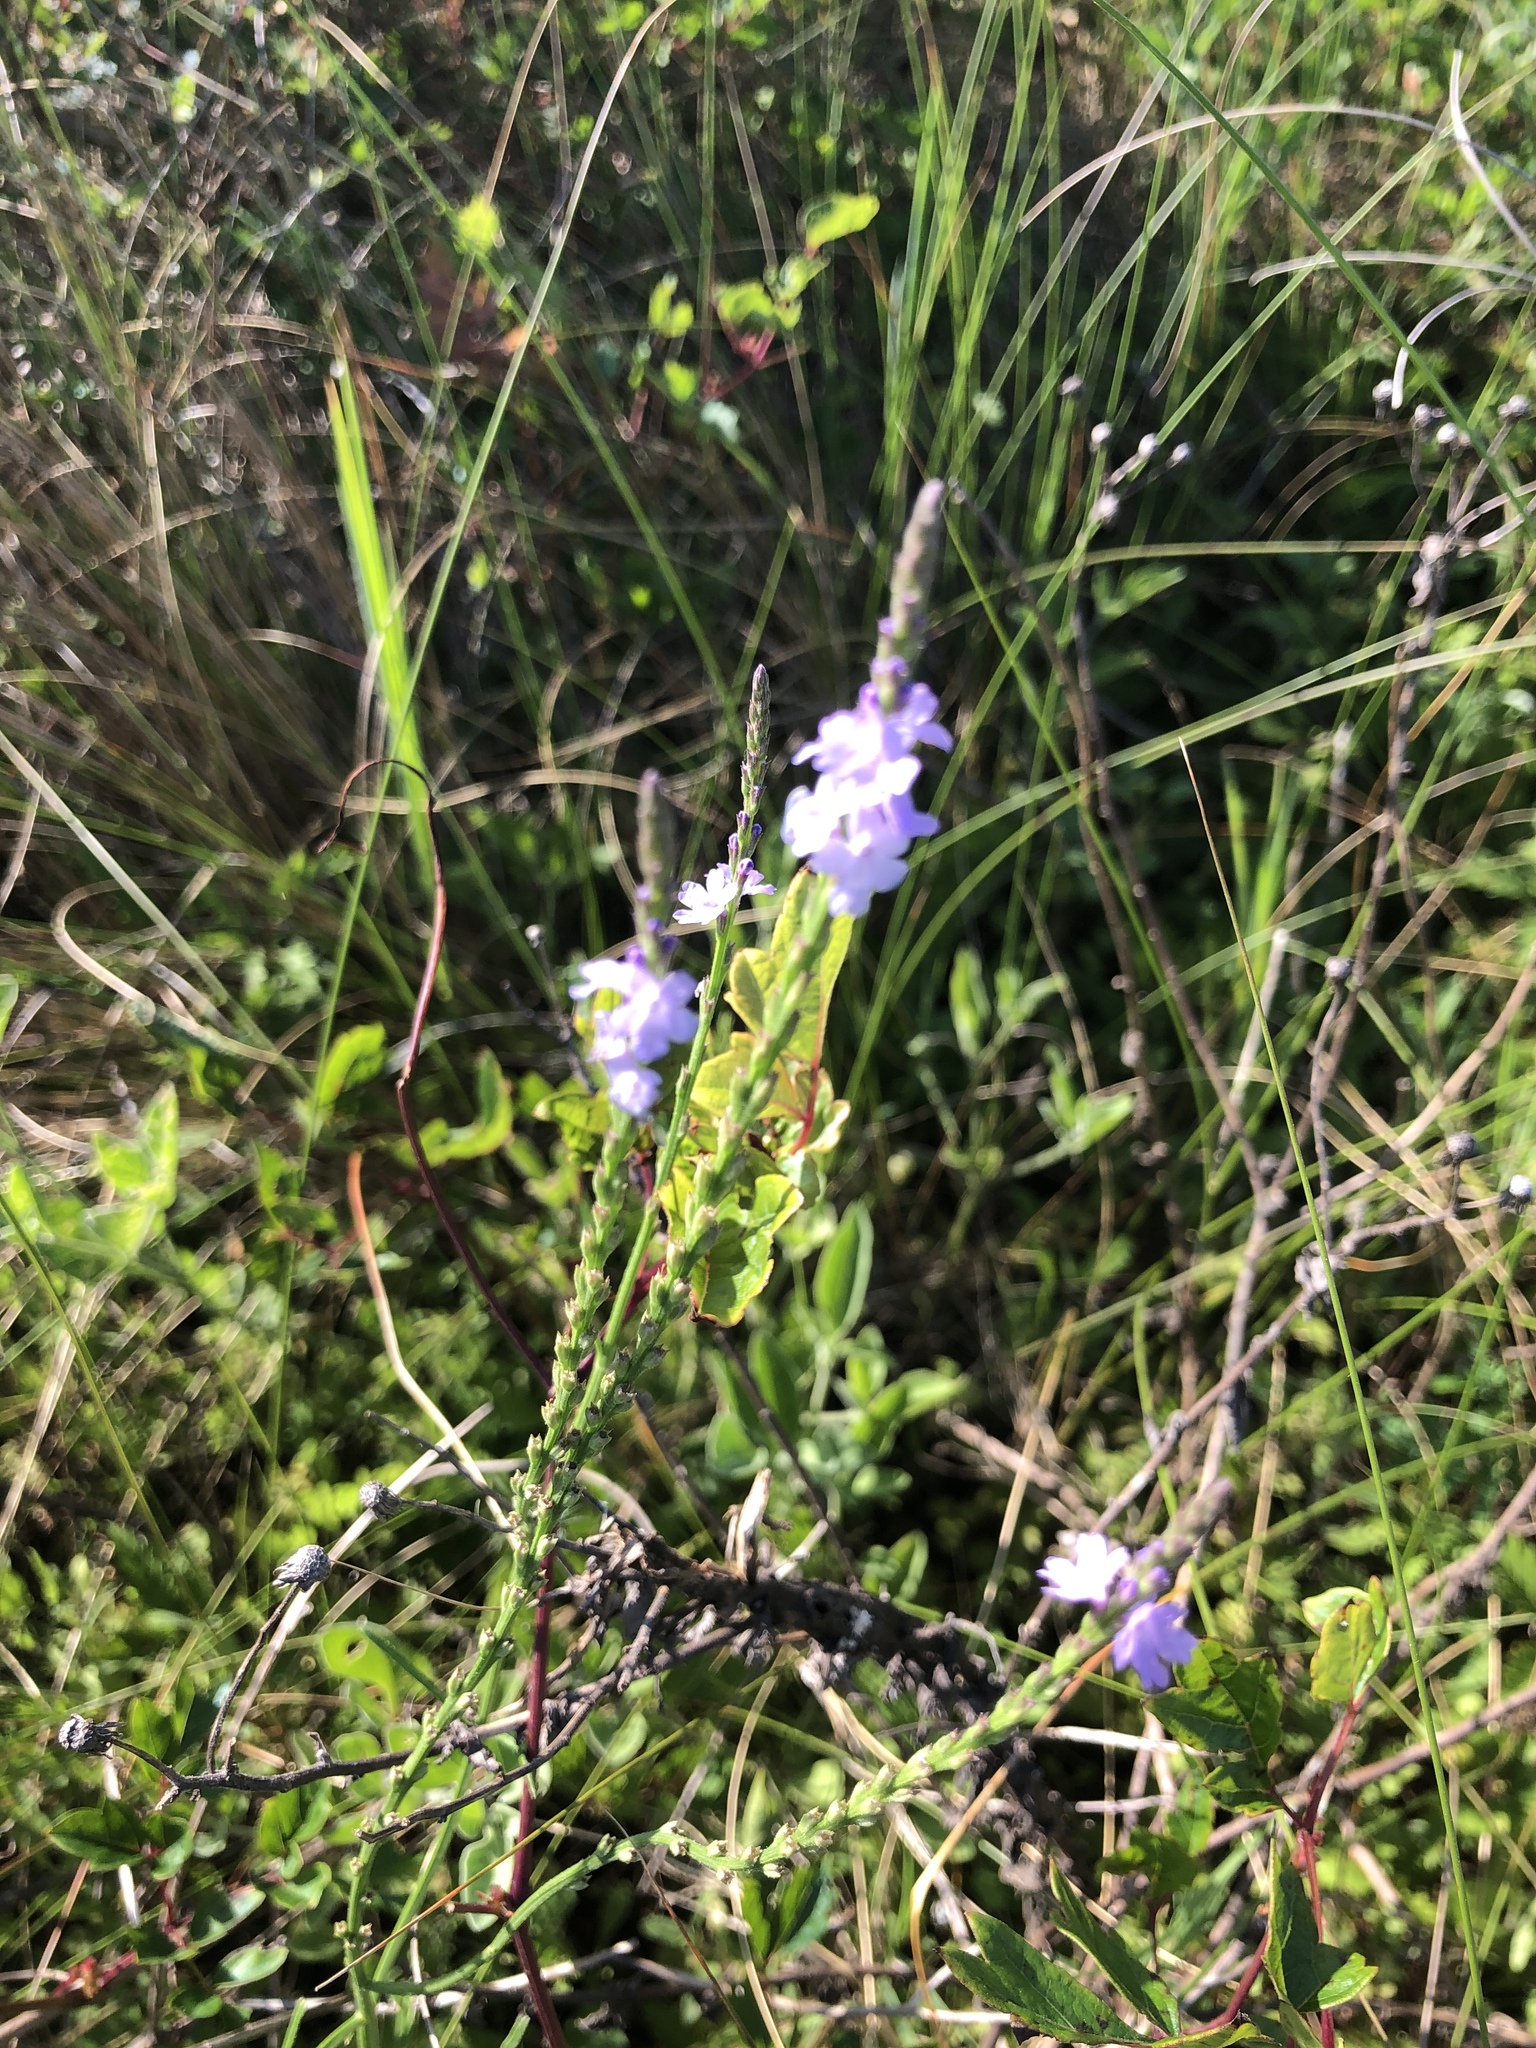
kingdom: Plantae
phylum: Tracheophyta
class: Magnoliopsida
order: Lamiales
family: Verbenaceae
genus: Verbena
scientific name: Verbena halei
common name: Texas vervain
